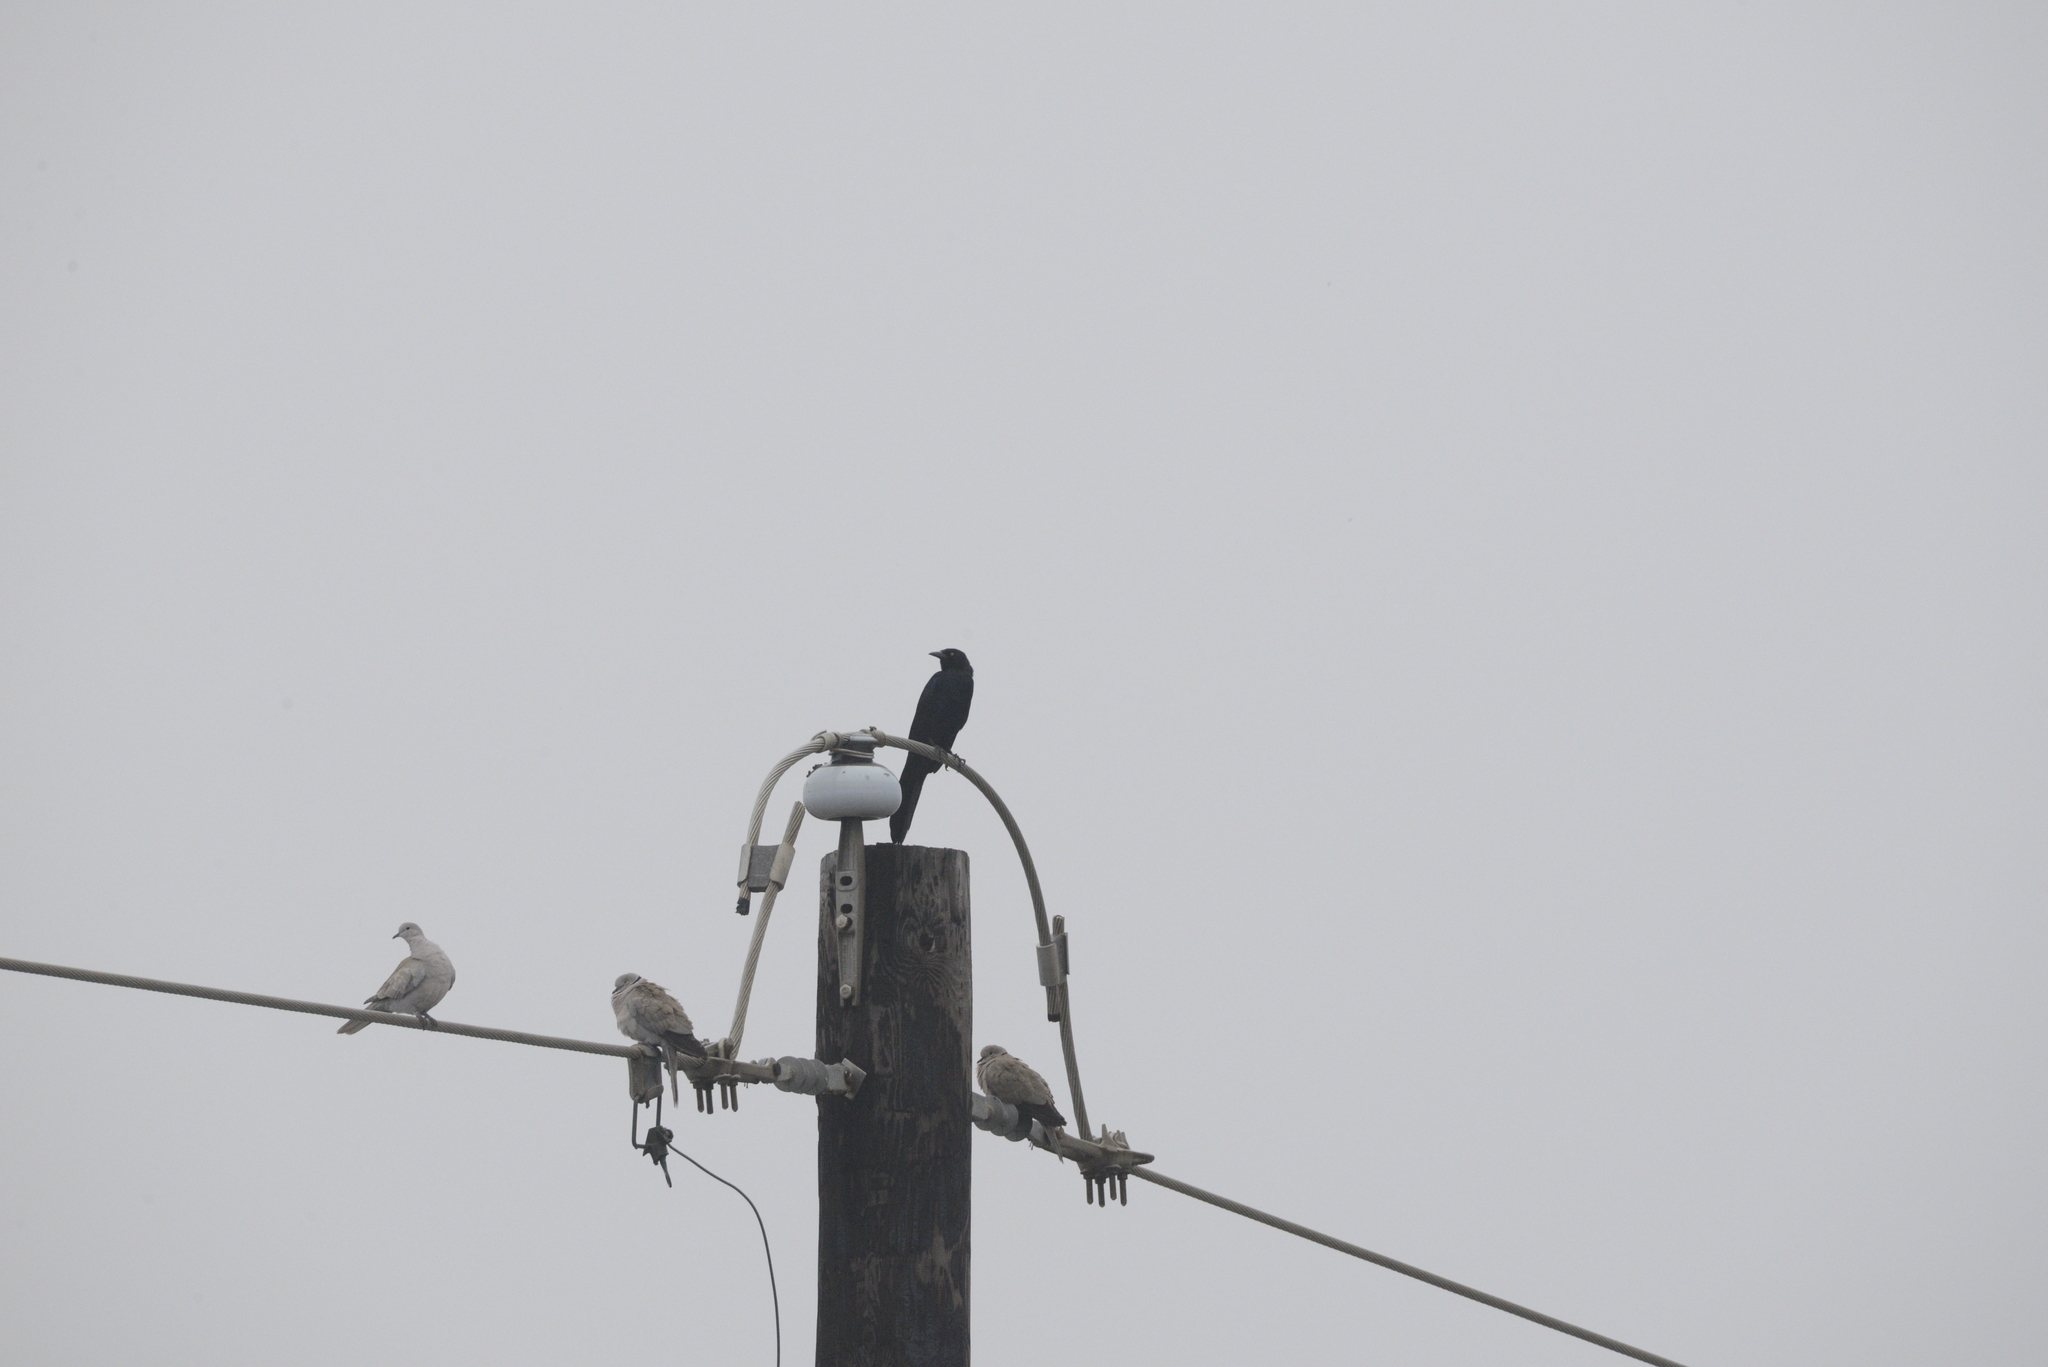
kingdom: Animalia
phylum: Chordata
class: Aves
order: Passeriformes
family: Icteridae
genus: Quiscalus
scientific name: Quiscalus mexicanus
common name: Great-tailed grackle
